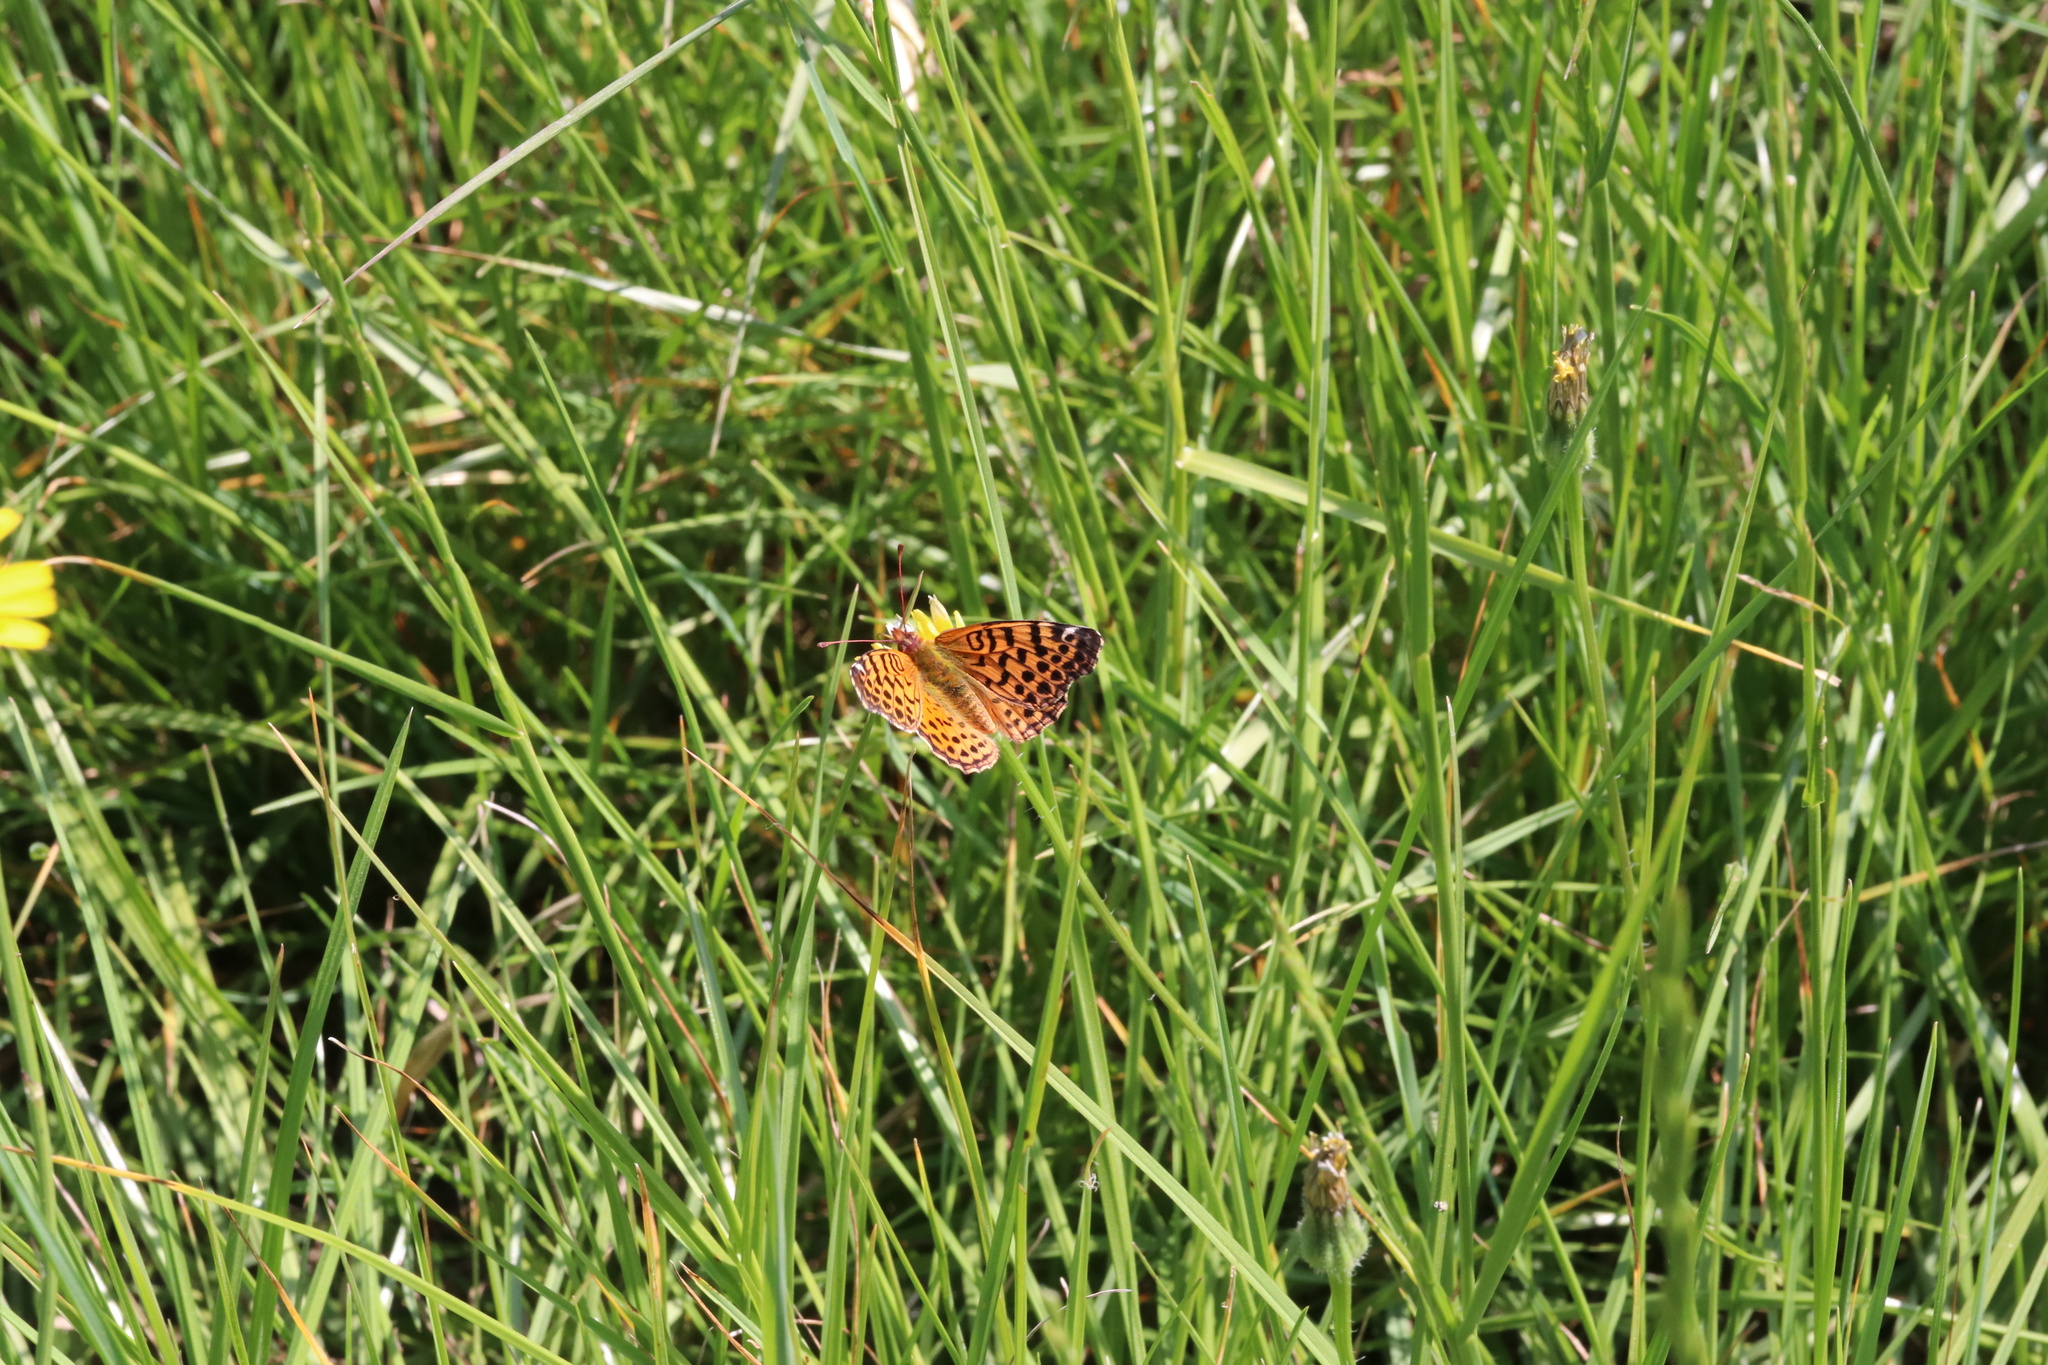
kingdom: Animalia
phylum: Arthropoda
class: Insecta
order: Lepidoptera
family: Nymphalidae
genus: Issoria
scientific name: Issoria Yramea cytheris
